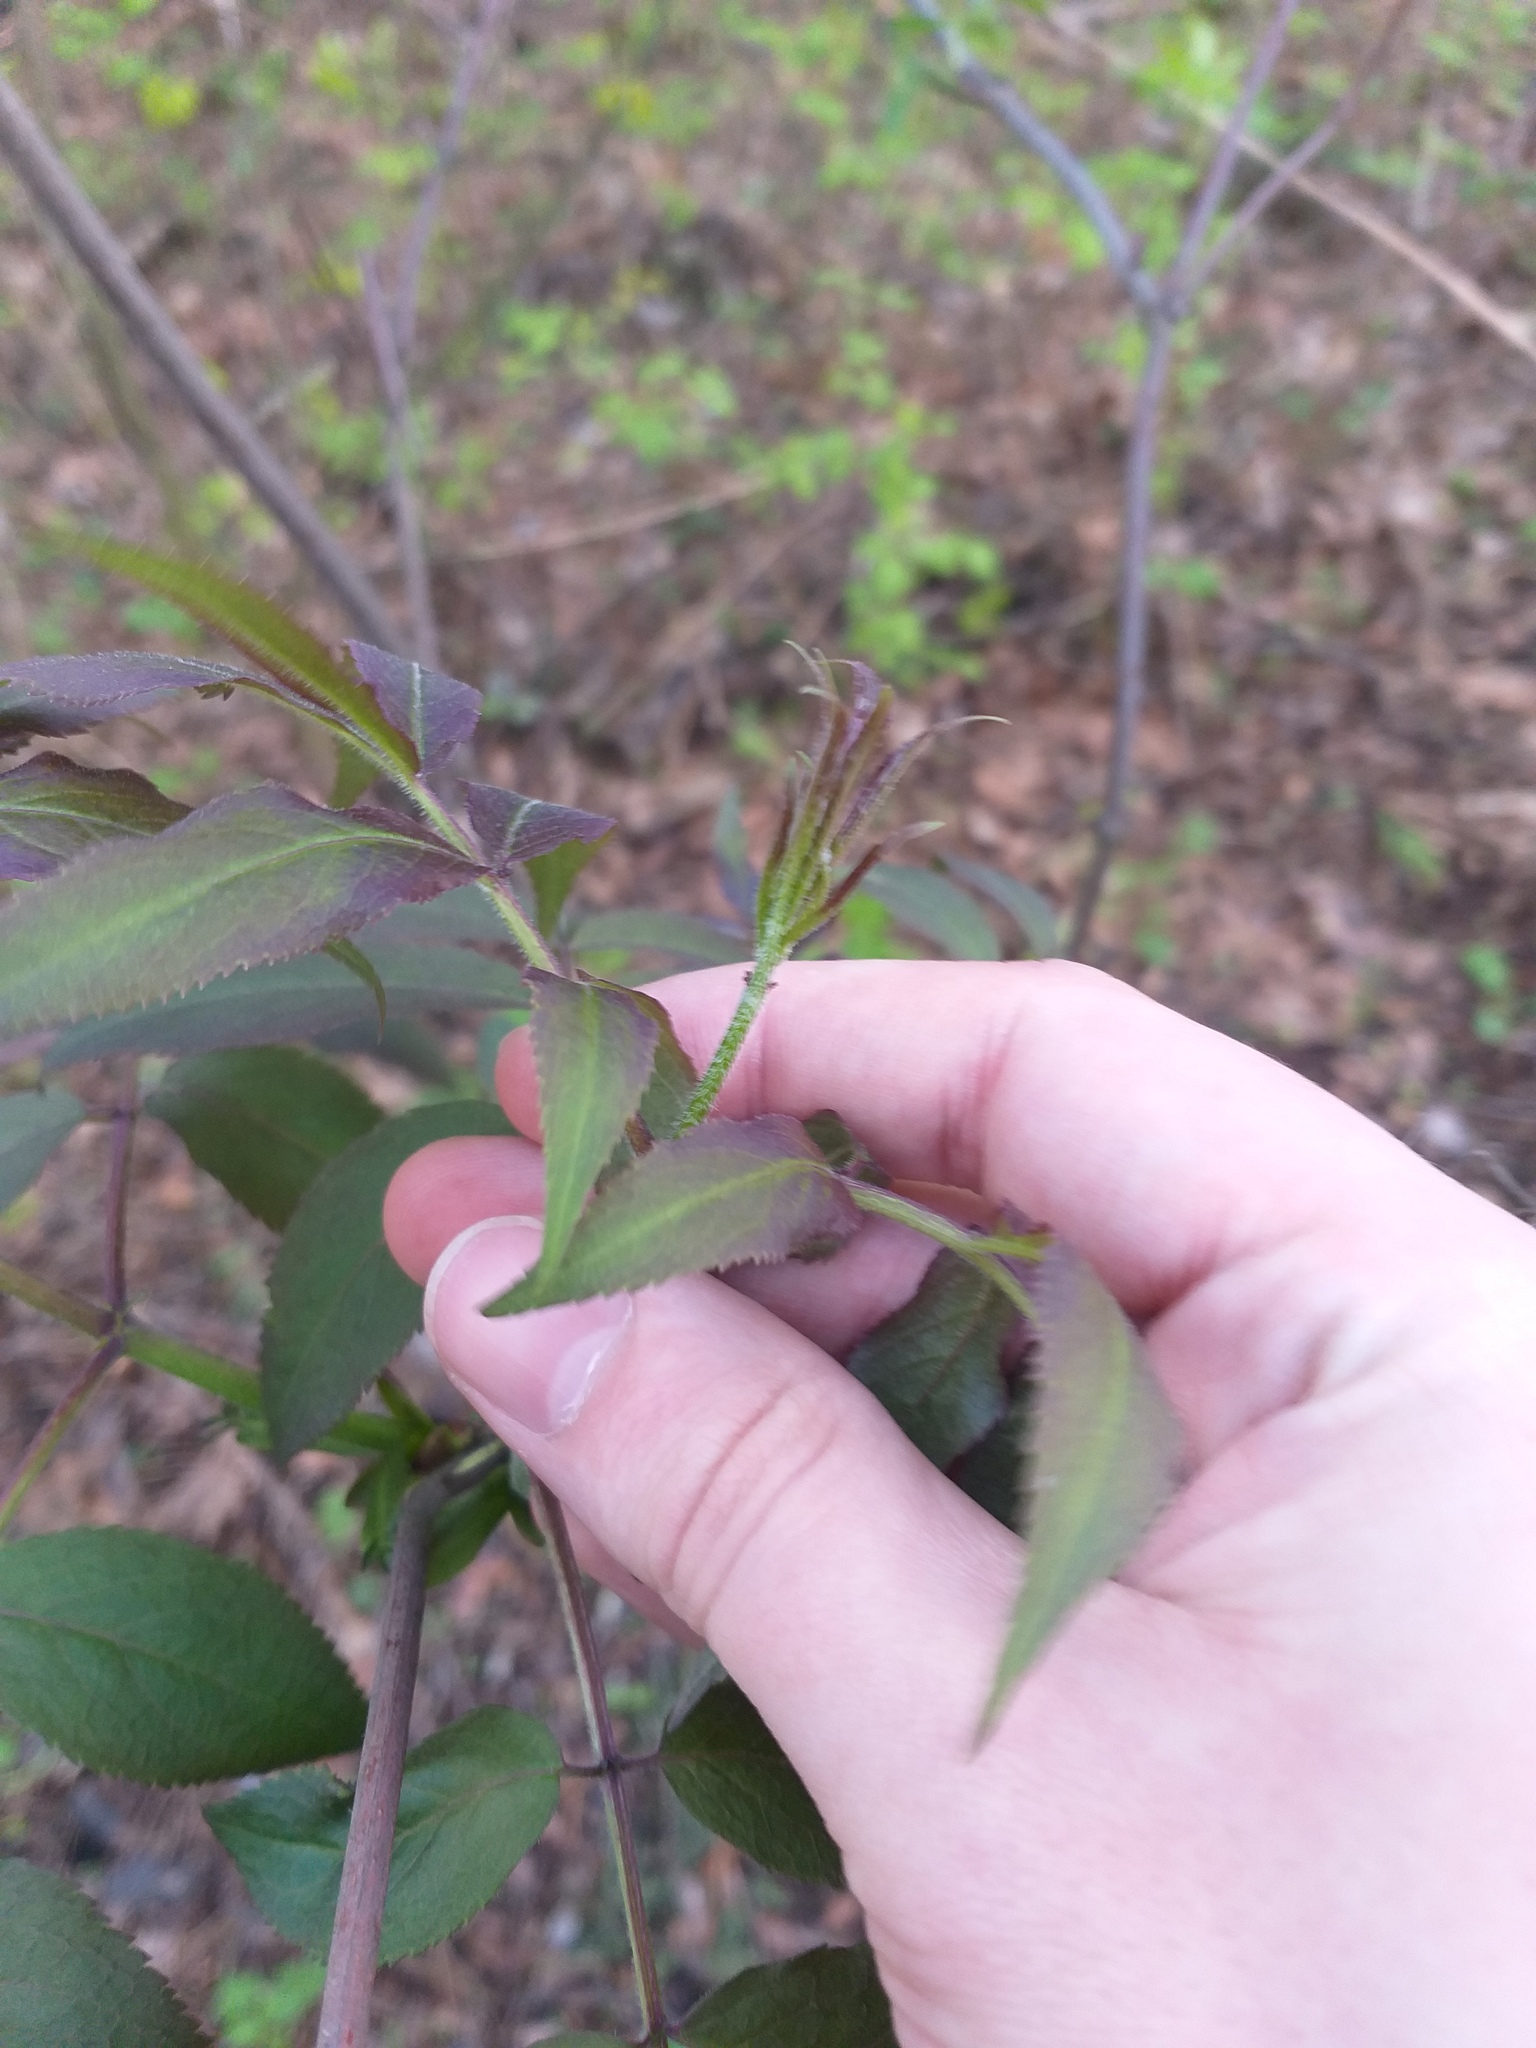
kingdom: Plantae
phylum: Tracheophyta
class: Magnoliopsida
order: Dipsacales
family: Viburnaceae
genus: Sambucus
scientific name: Sambucus racemosa
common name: Red-berried elder
